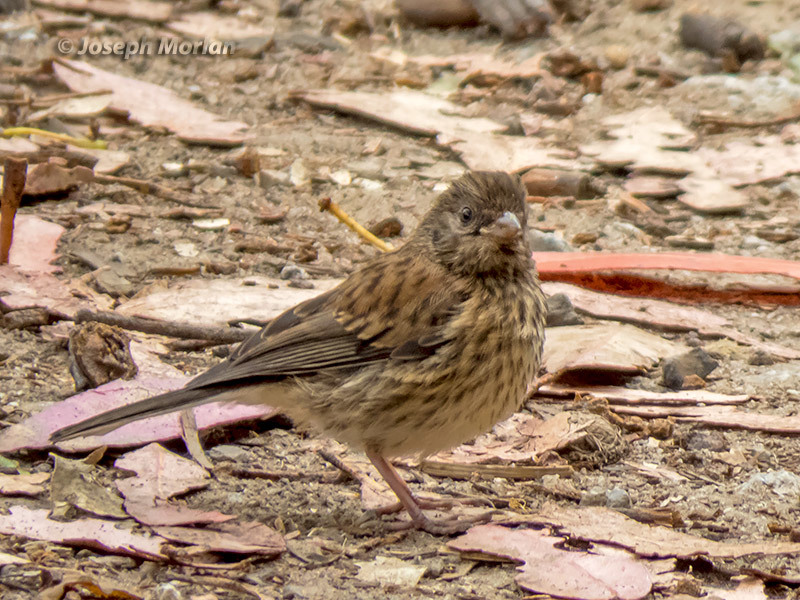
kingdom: Animalia
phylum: Chordata
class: Aves
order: Passeriformes
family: Passerellidae
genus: Junco
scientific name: Junco hyemalis
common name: Dark-eyed junco
